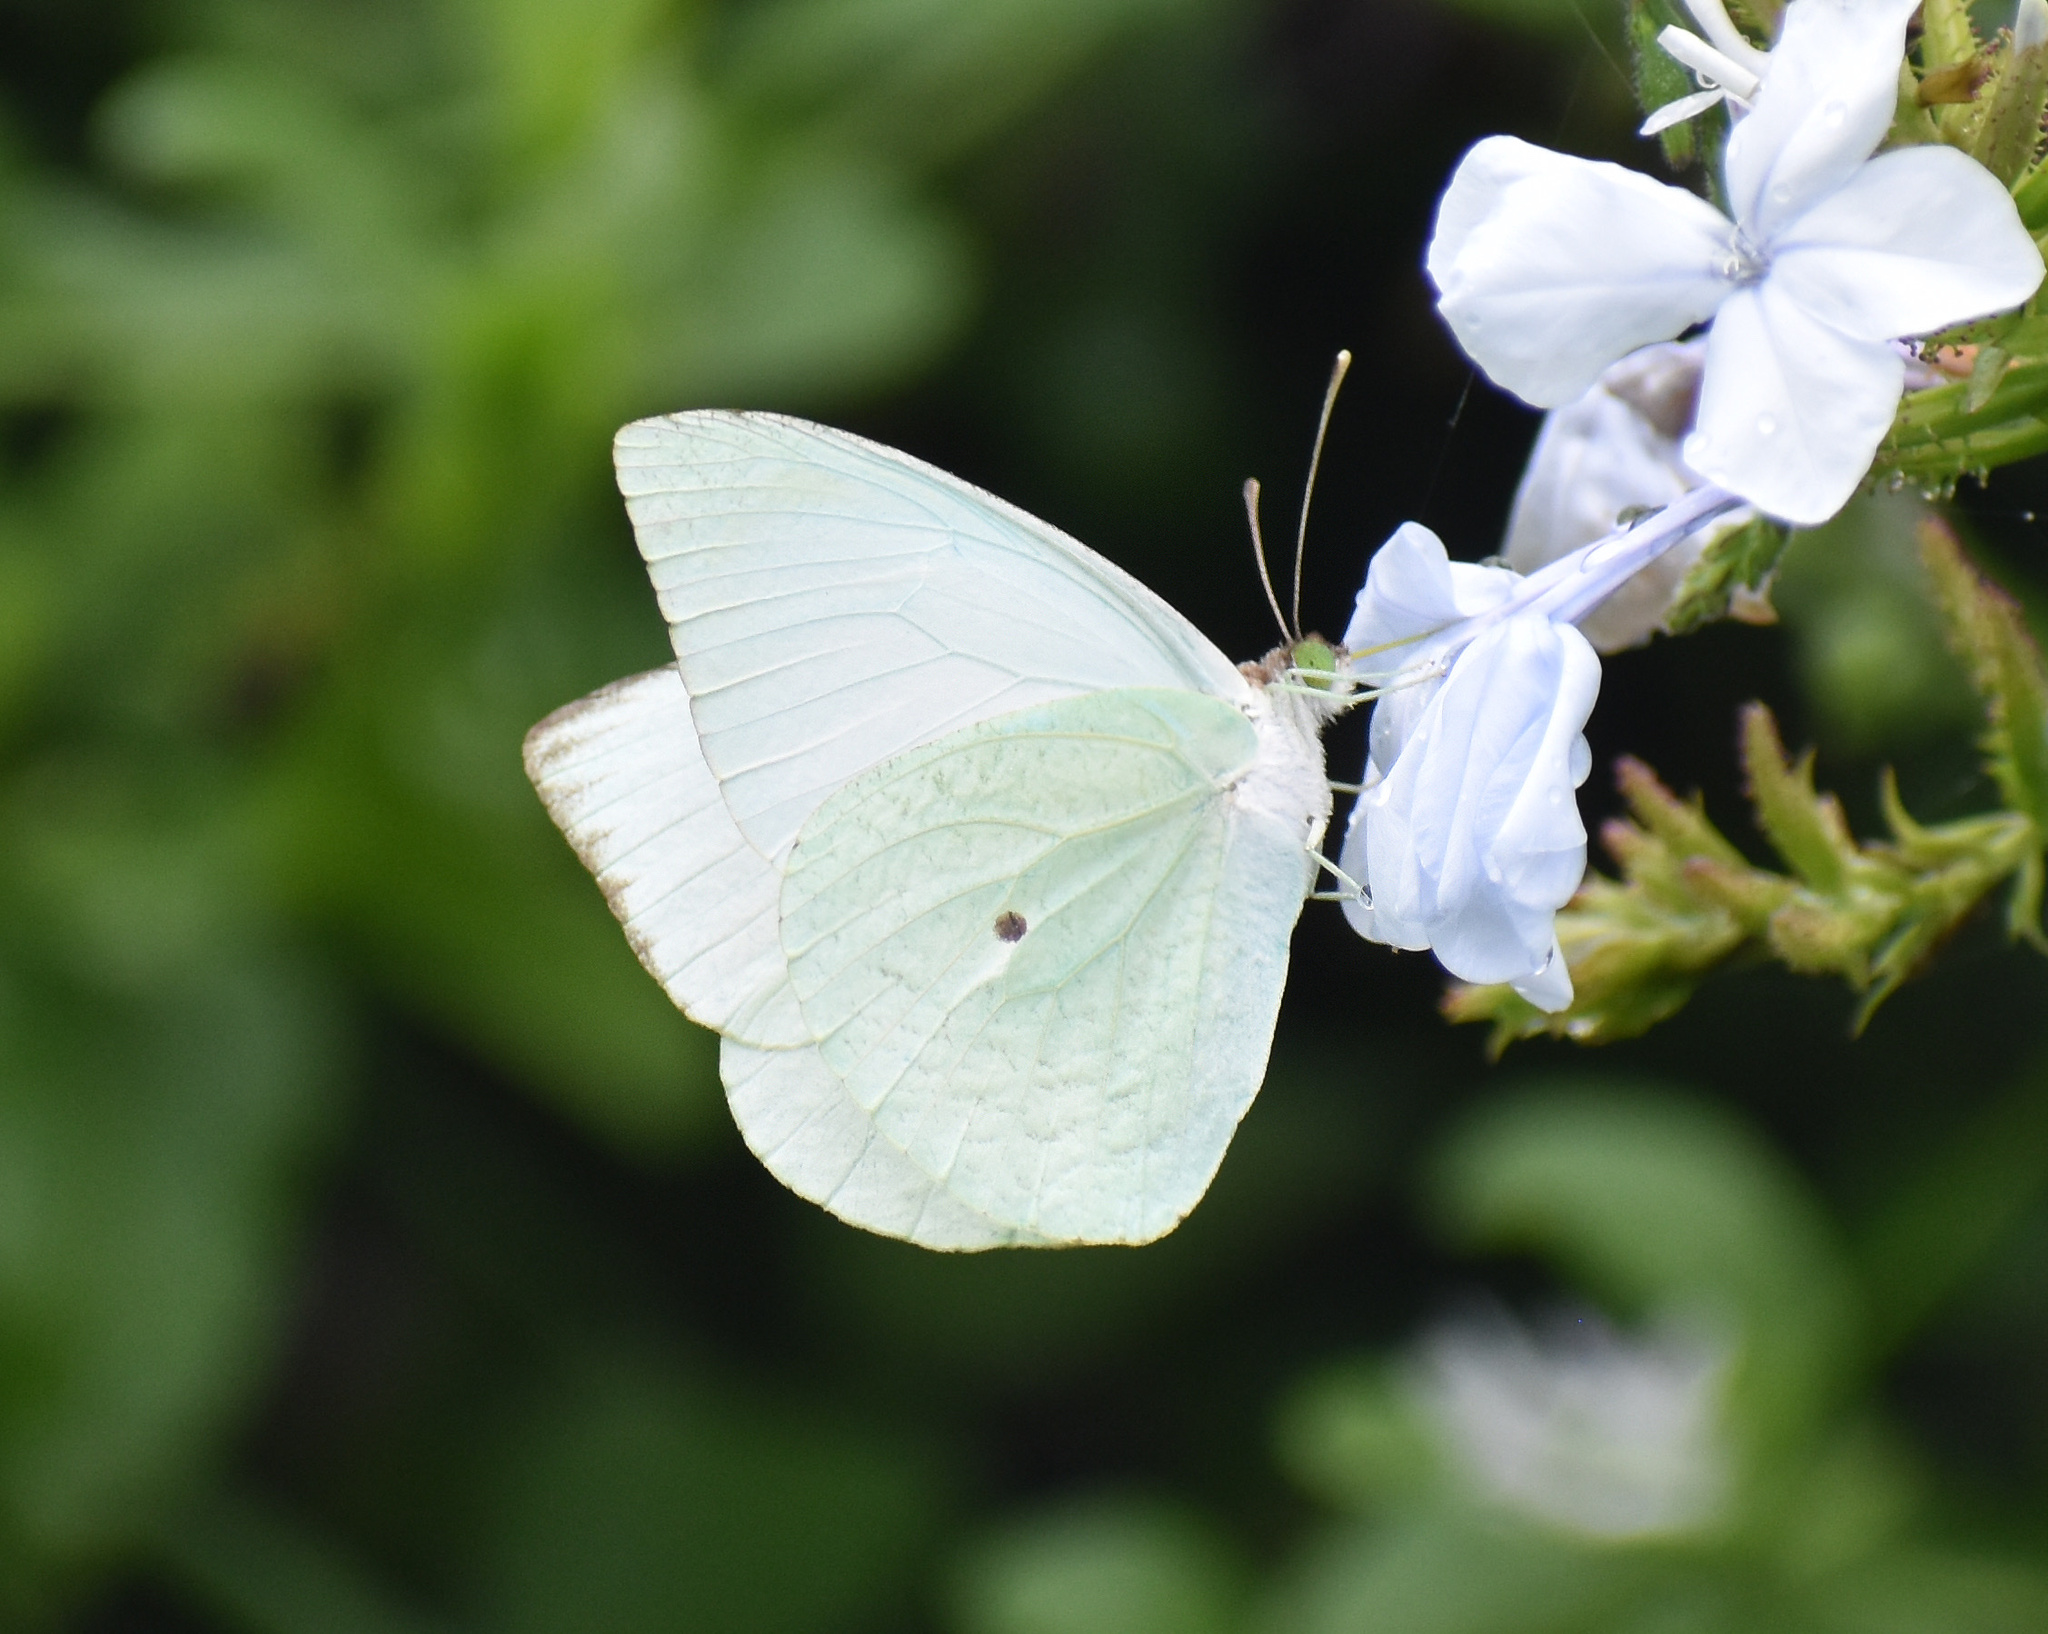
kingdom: Animalia
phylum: Arthropoda
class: Insecta
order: Lepidoptera
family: Pieridae
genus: Nepheronia
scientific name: Nepheronia buquetii
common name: Plain vagrant
